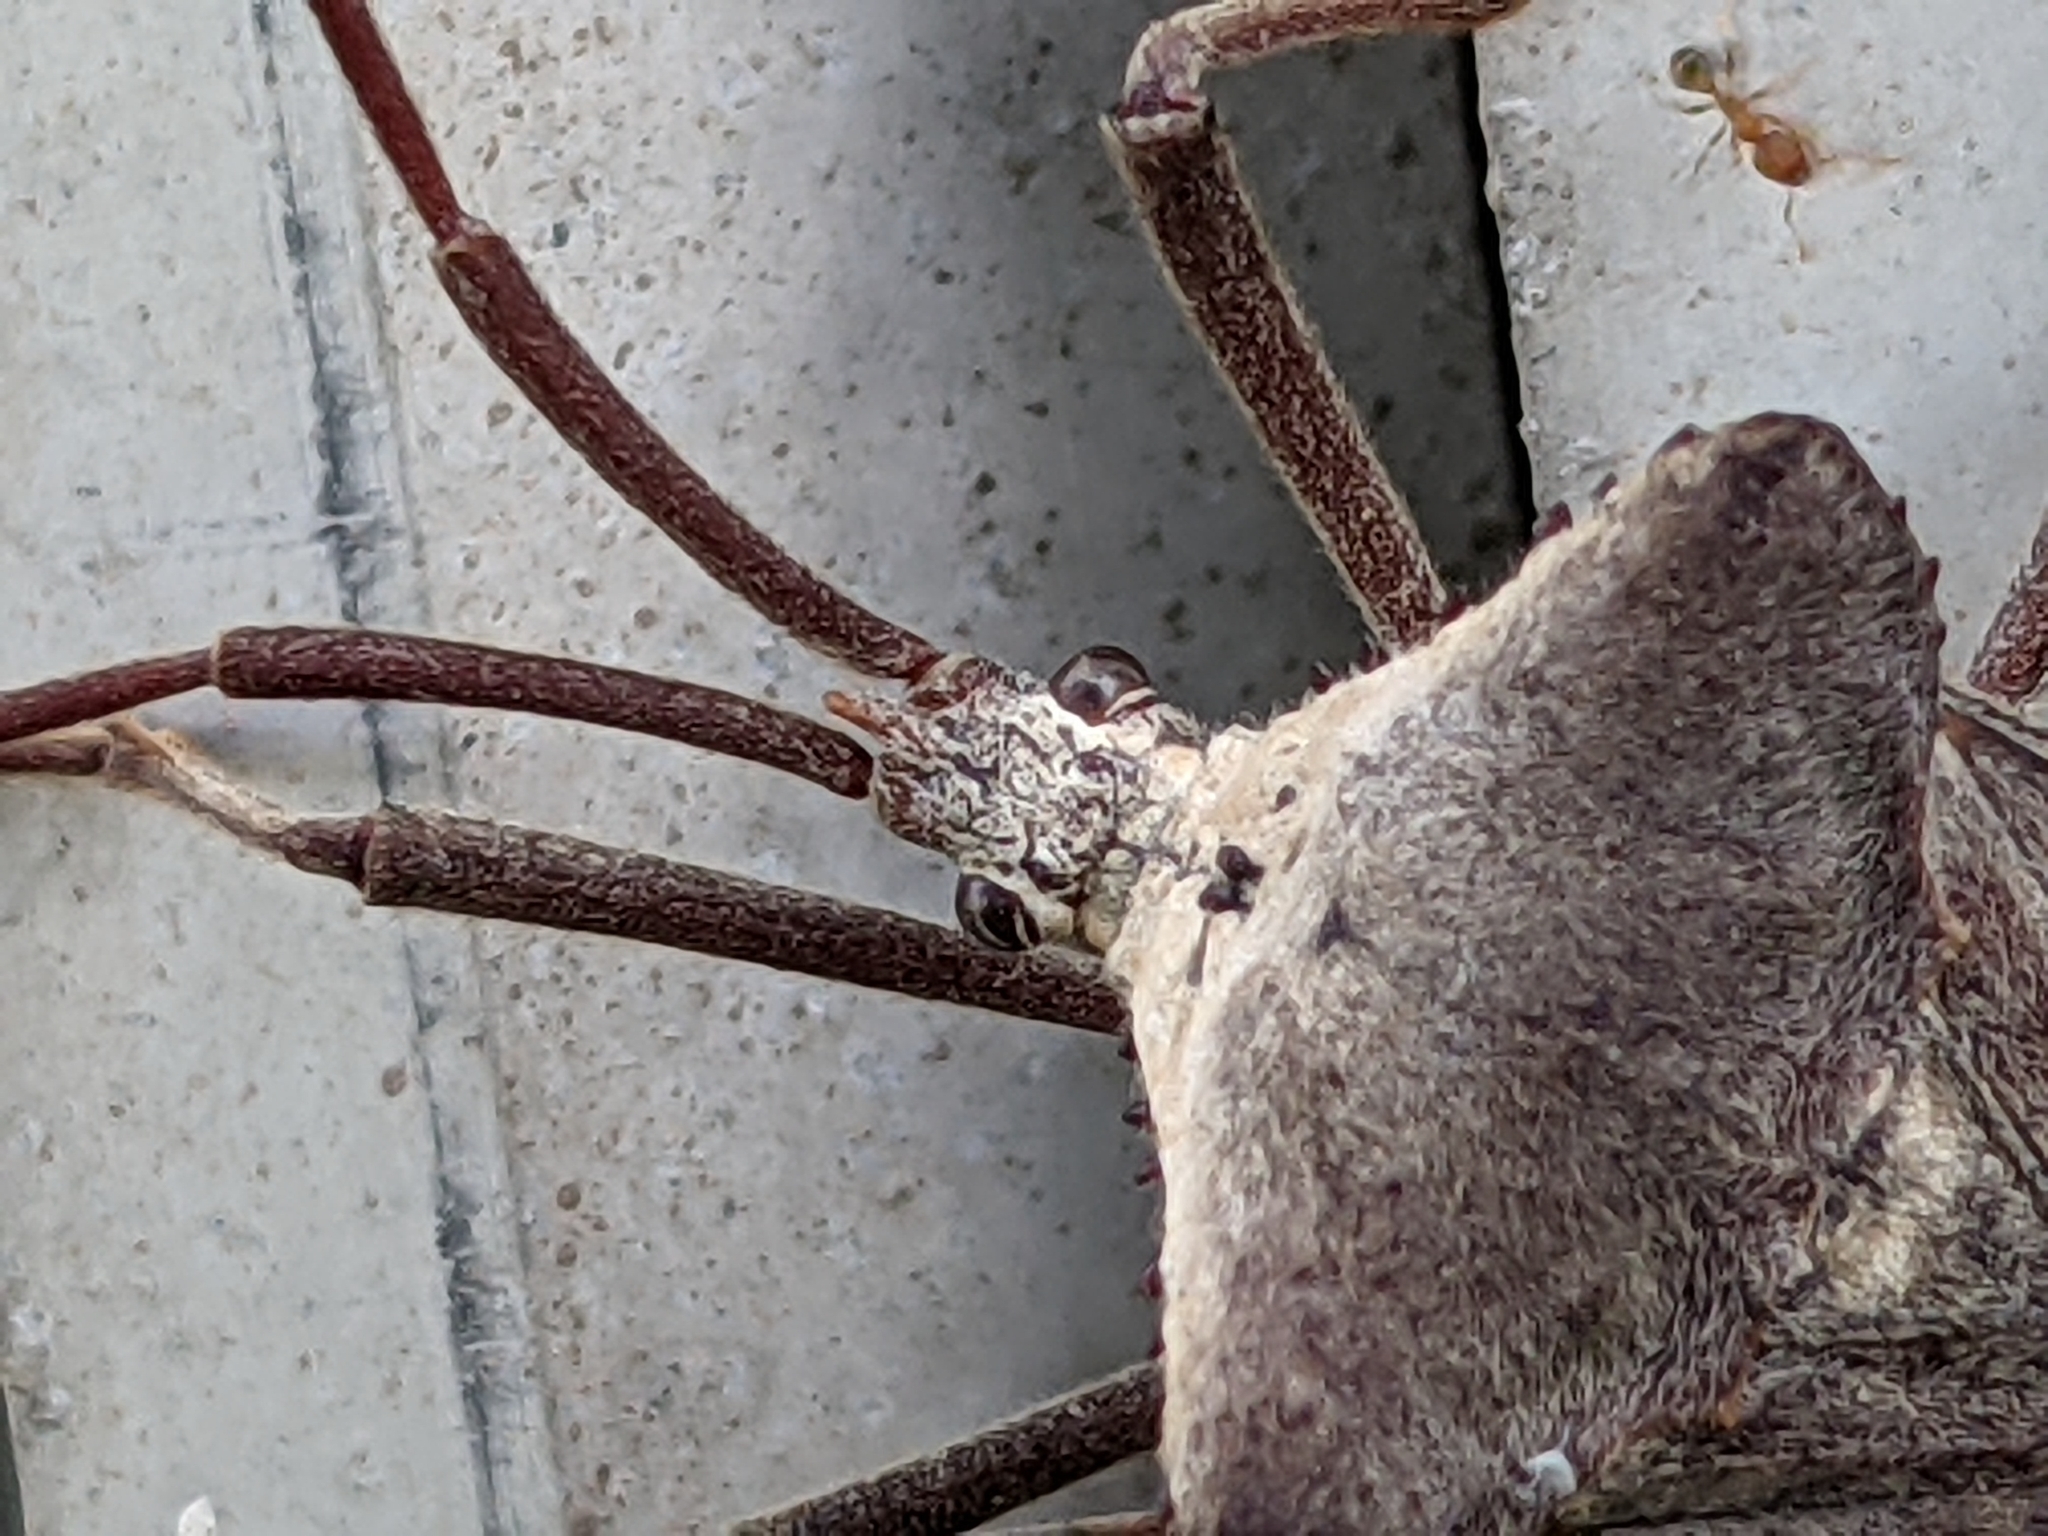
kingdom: Animalia
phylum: Arthropoda
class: Insecta
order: Hemiptera
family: Coreidae
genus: Acanthocephala
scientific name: Acanthocephala declivis
